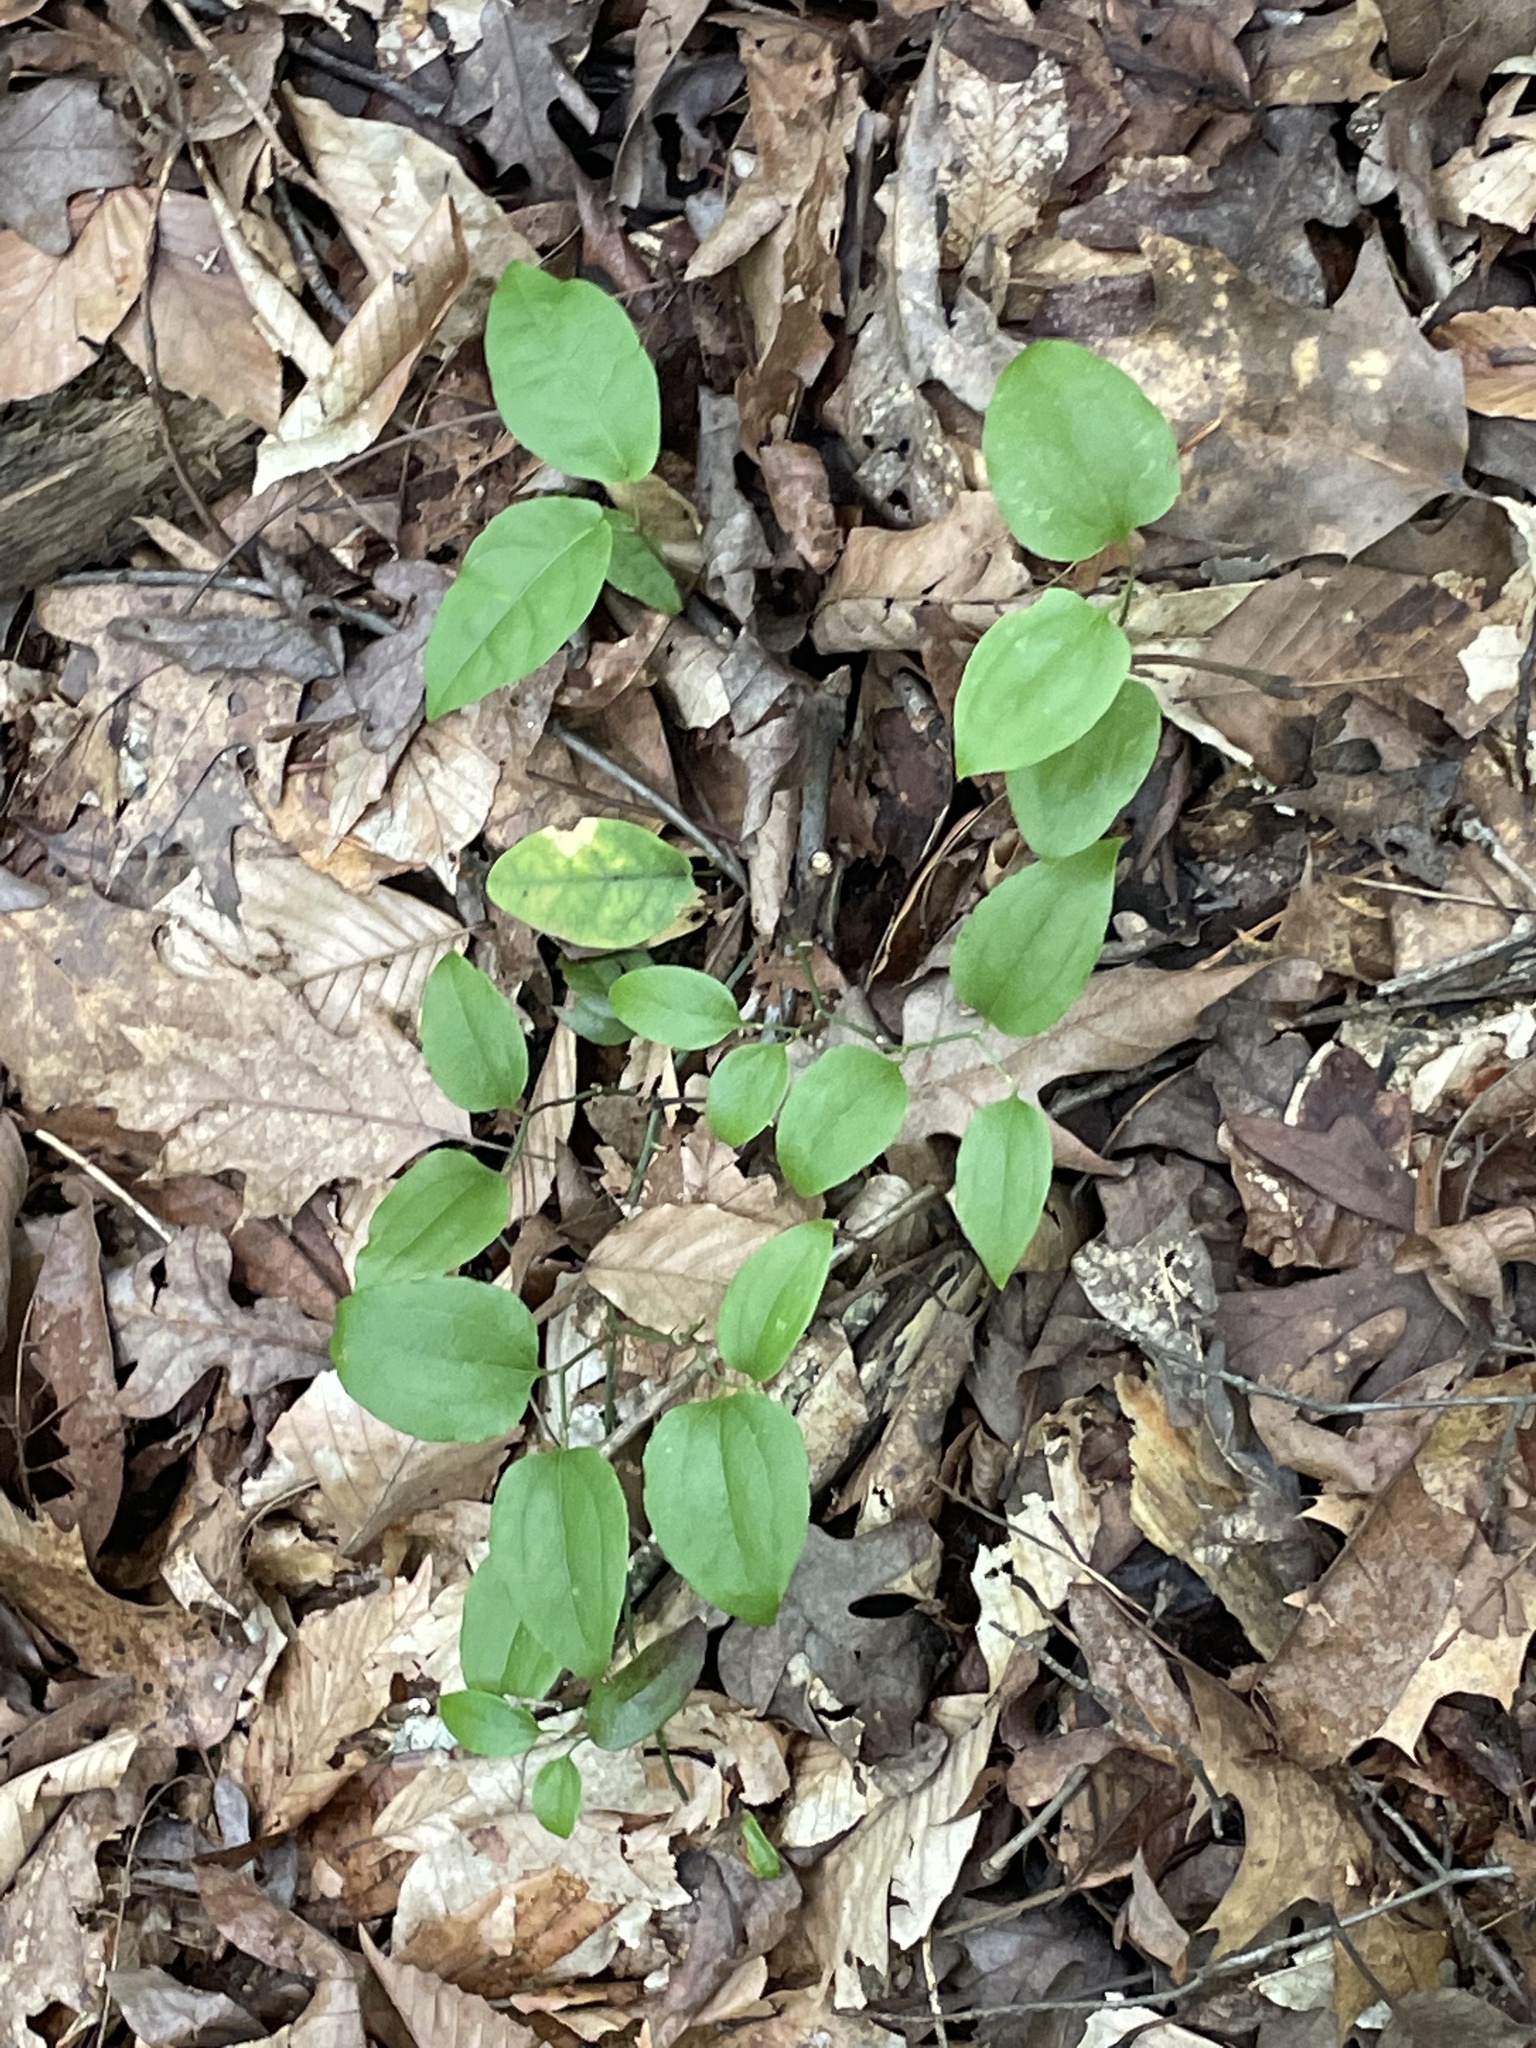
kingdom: Plantae
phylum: Tracheophyta
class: Liliopsida
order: Liliales
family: Smilacaceae
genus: Smilax
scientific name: Smilax rotundifolia
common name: Bullbriar
